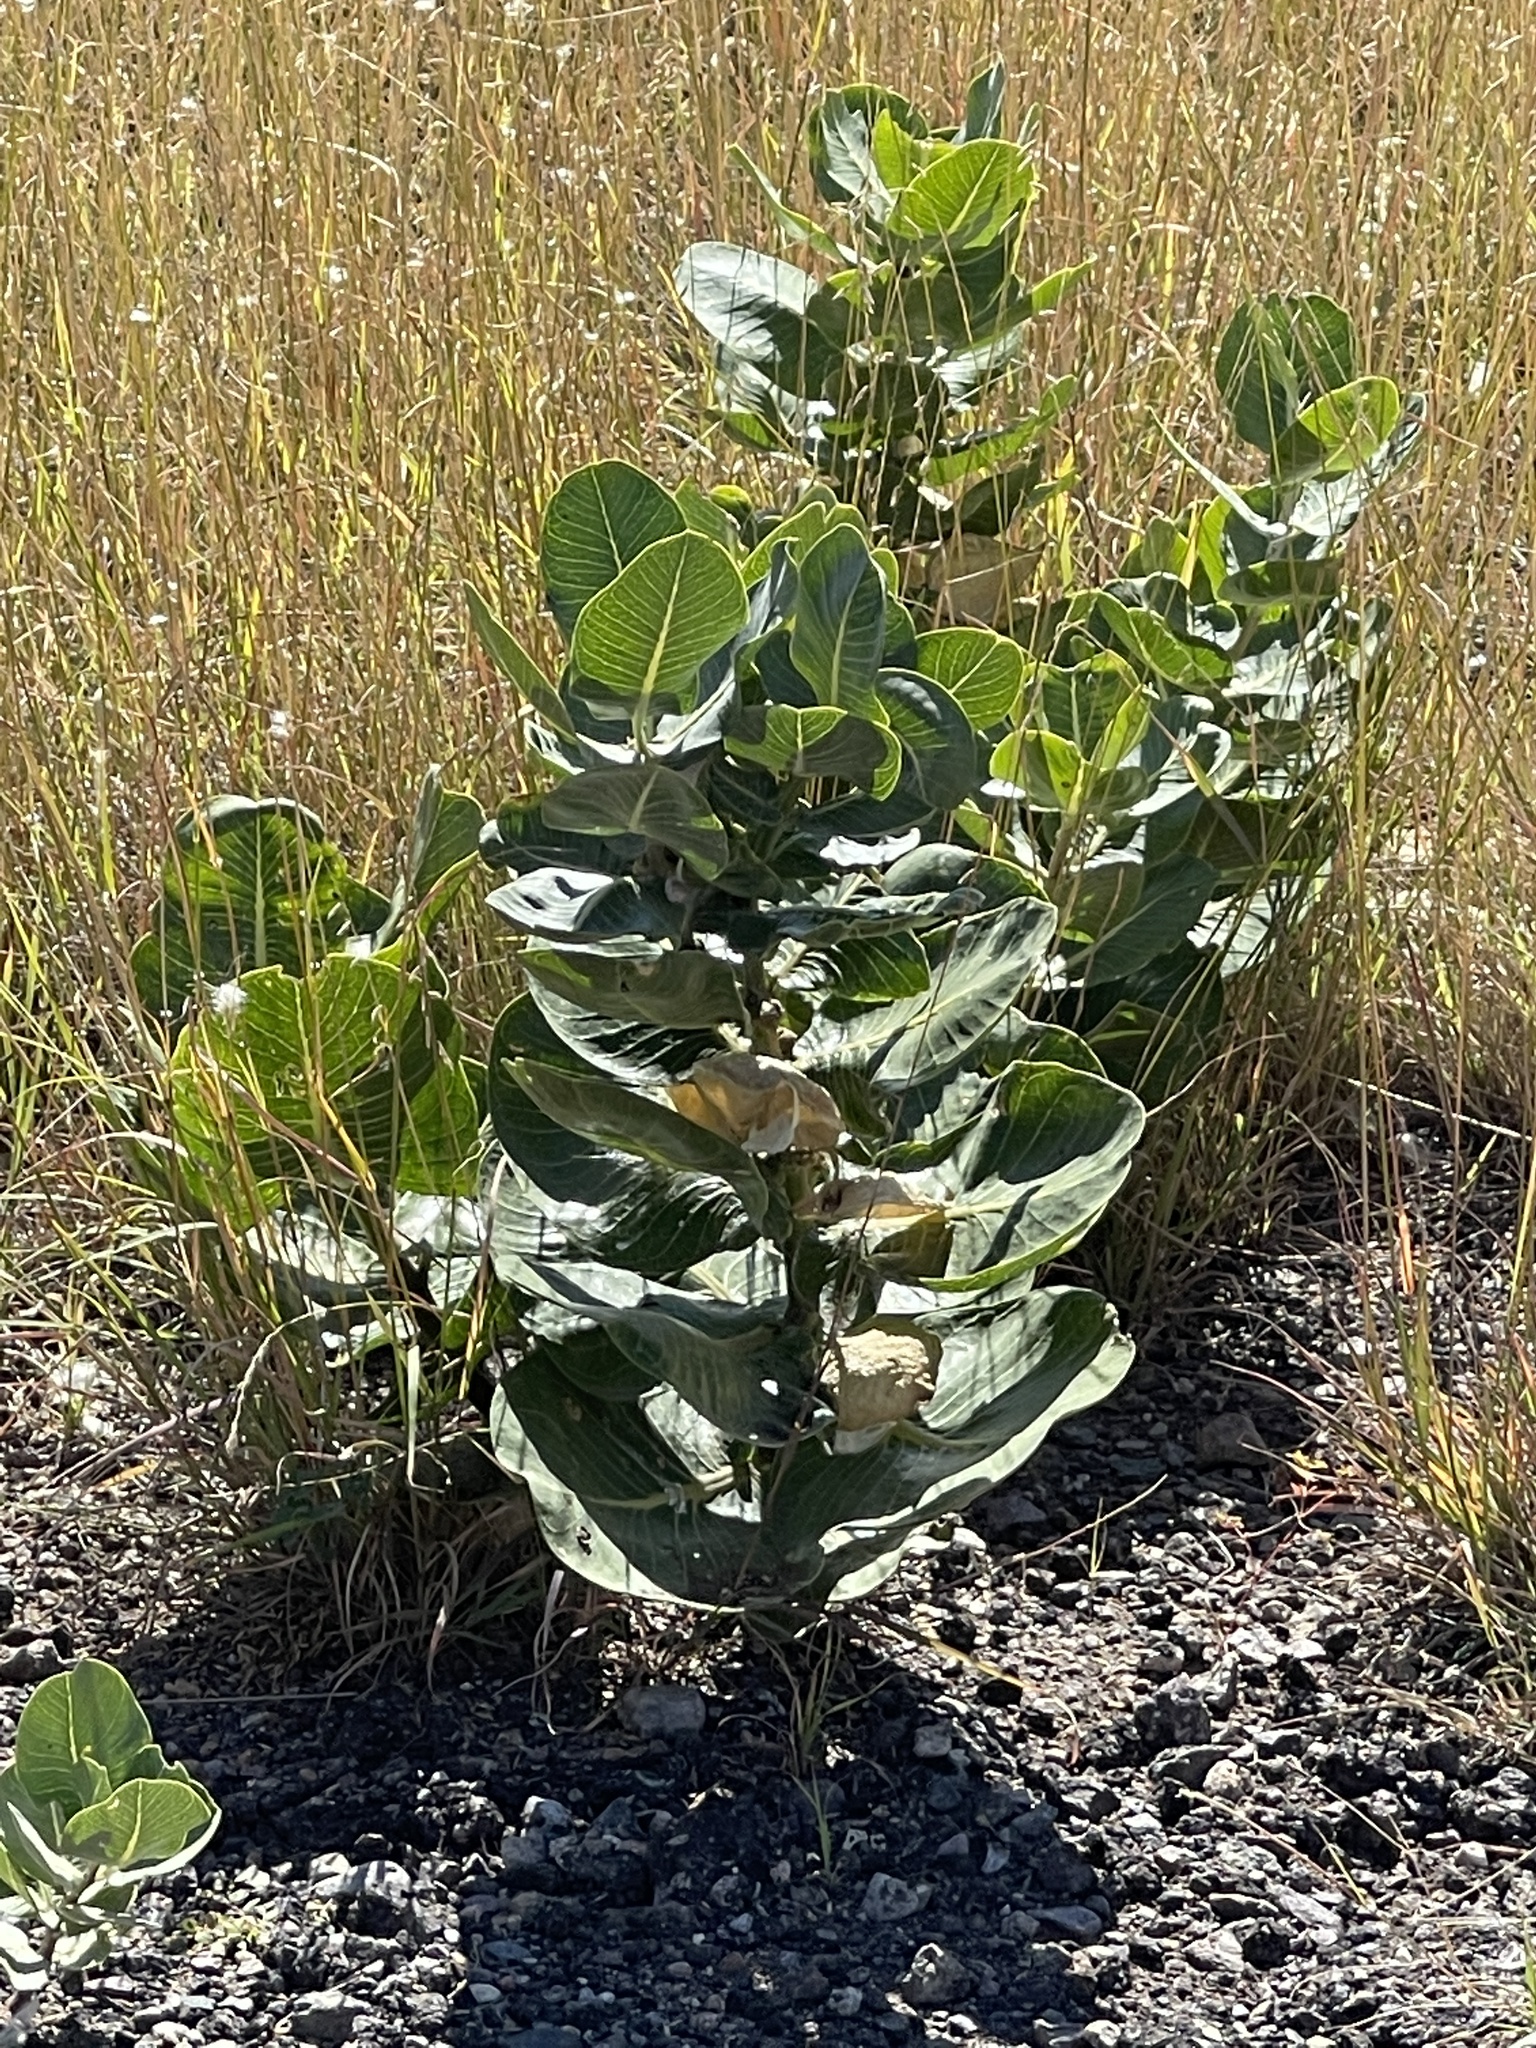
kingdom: Plantae
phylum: Tracheophyta
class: Magnoliopsida
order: Gentianales
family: Apocynaceae
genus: Asclepias
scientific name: Asclepias latifolia
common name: Broadleaf milkweed
